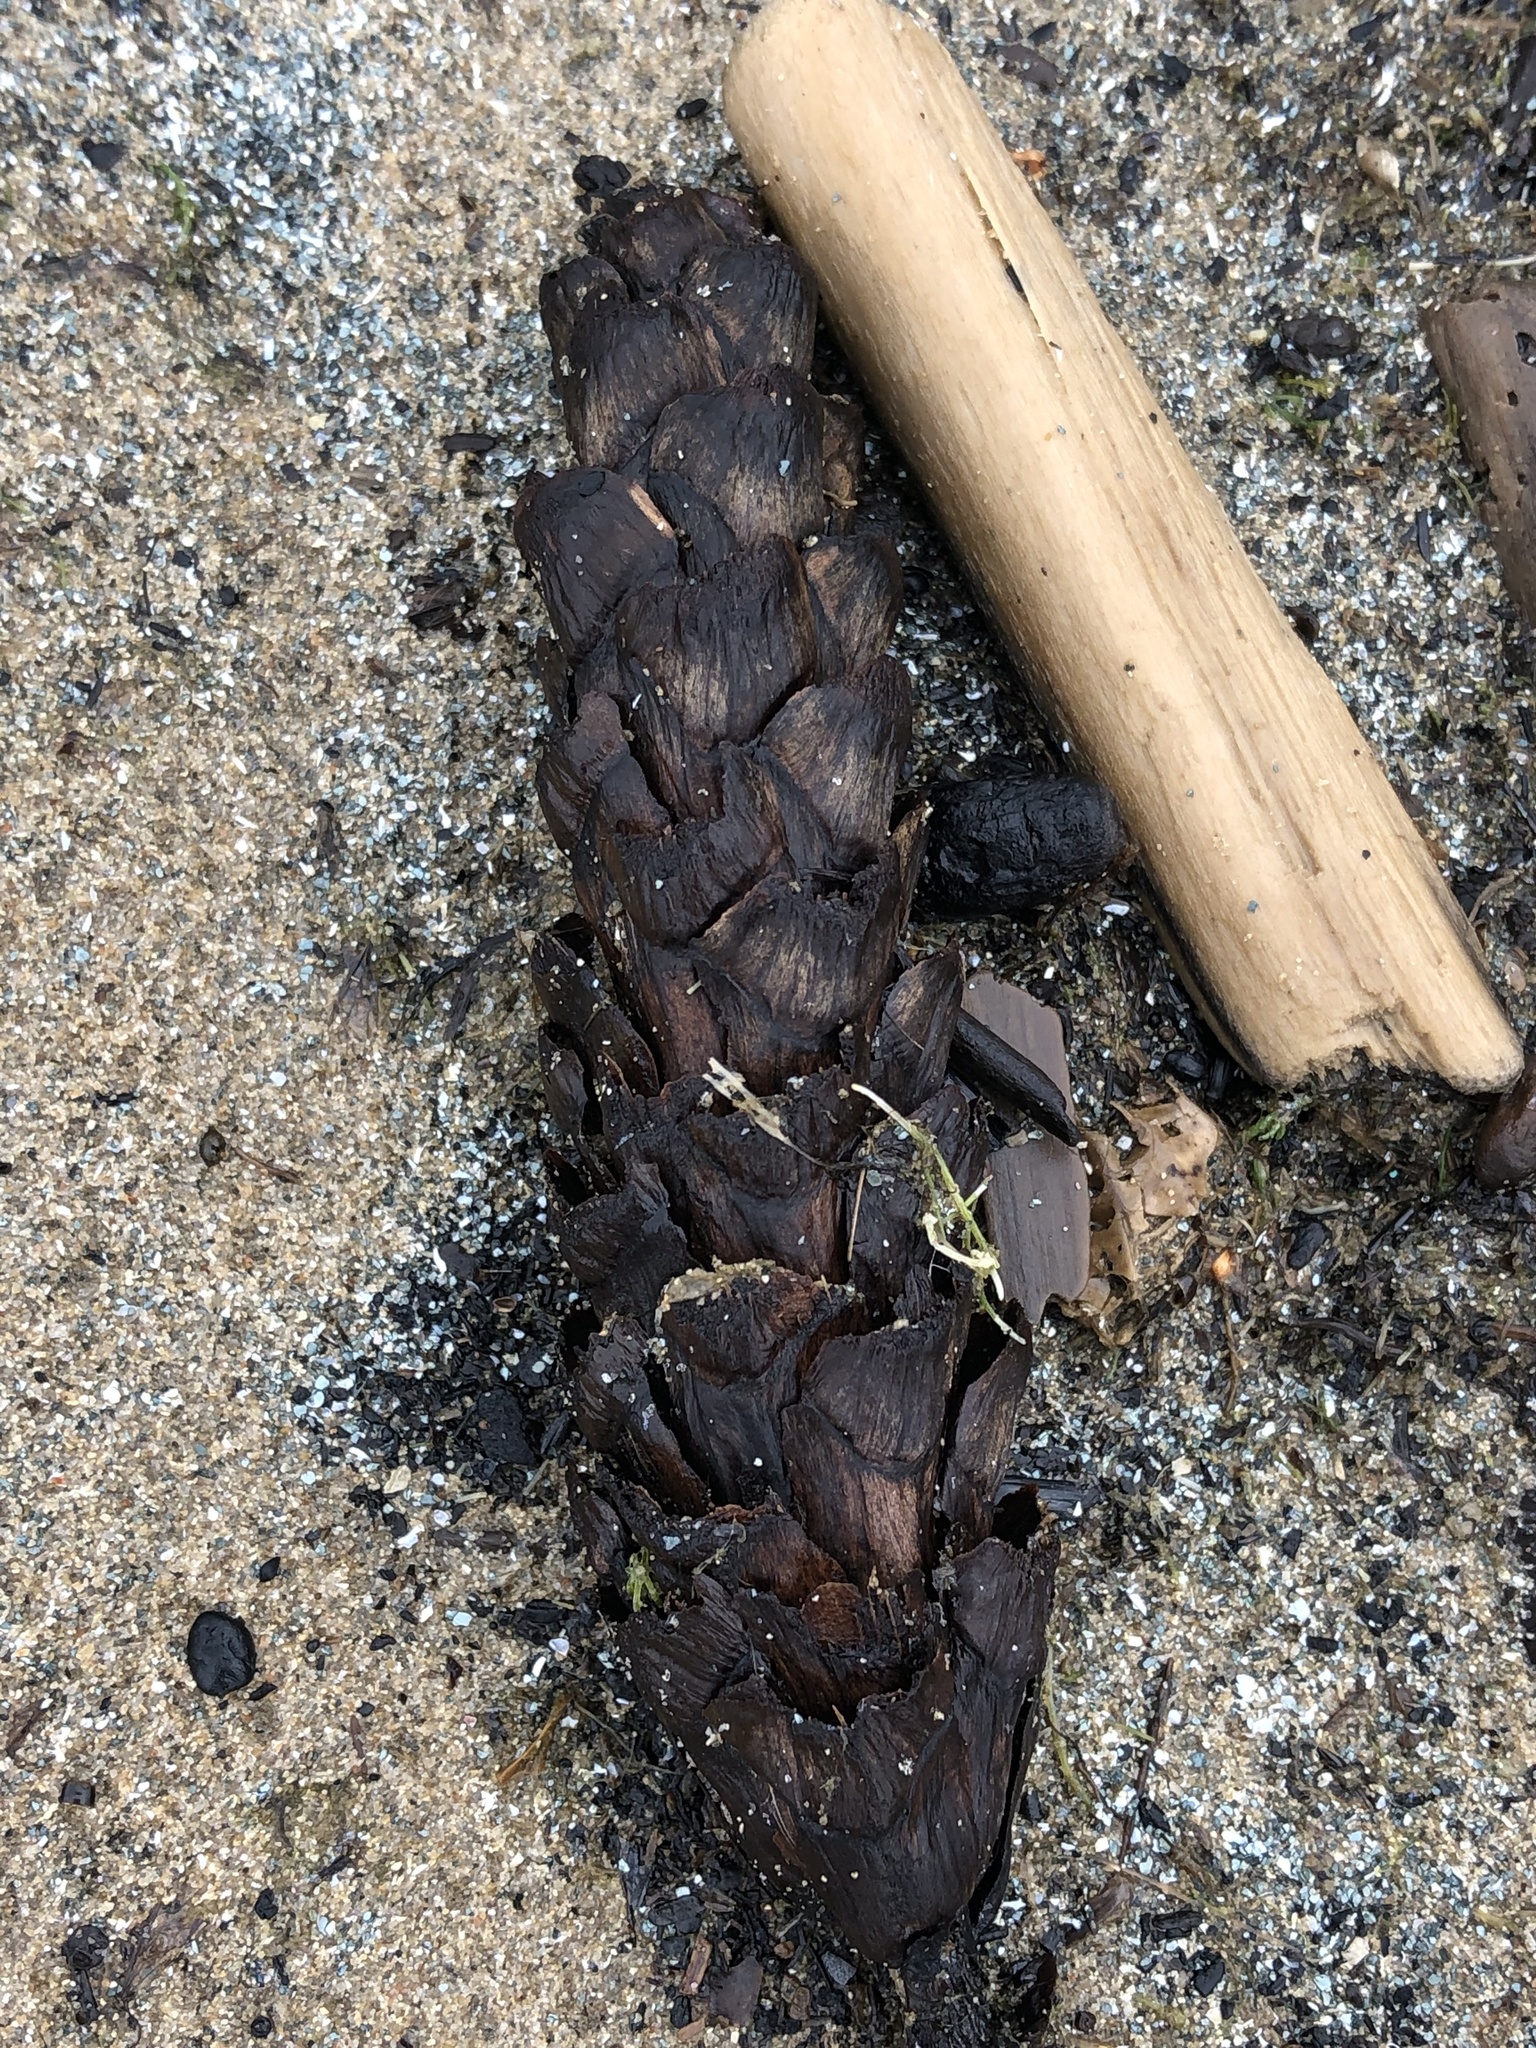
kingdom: Plantae
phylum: Tracheophyta
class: Pinopsida
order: Pinales
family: Pinaceae
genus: Pinus
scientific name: Pinus strobus
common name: Weymouth pine
